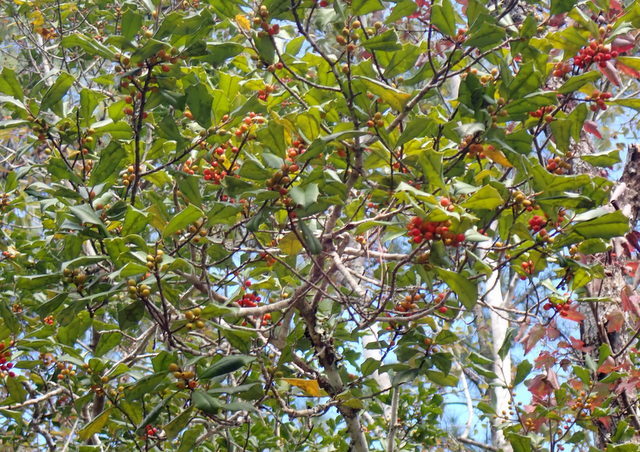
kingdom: Plantae
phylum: Tracheophyta
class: Magnoliopsida
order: Aquifoliales
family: Aquifoliaceae
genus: Ilex
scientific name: Ilex opaca
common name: American holly
